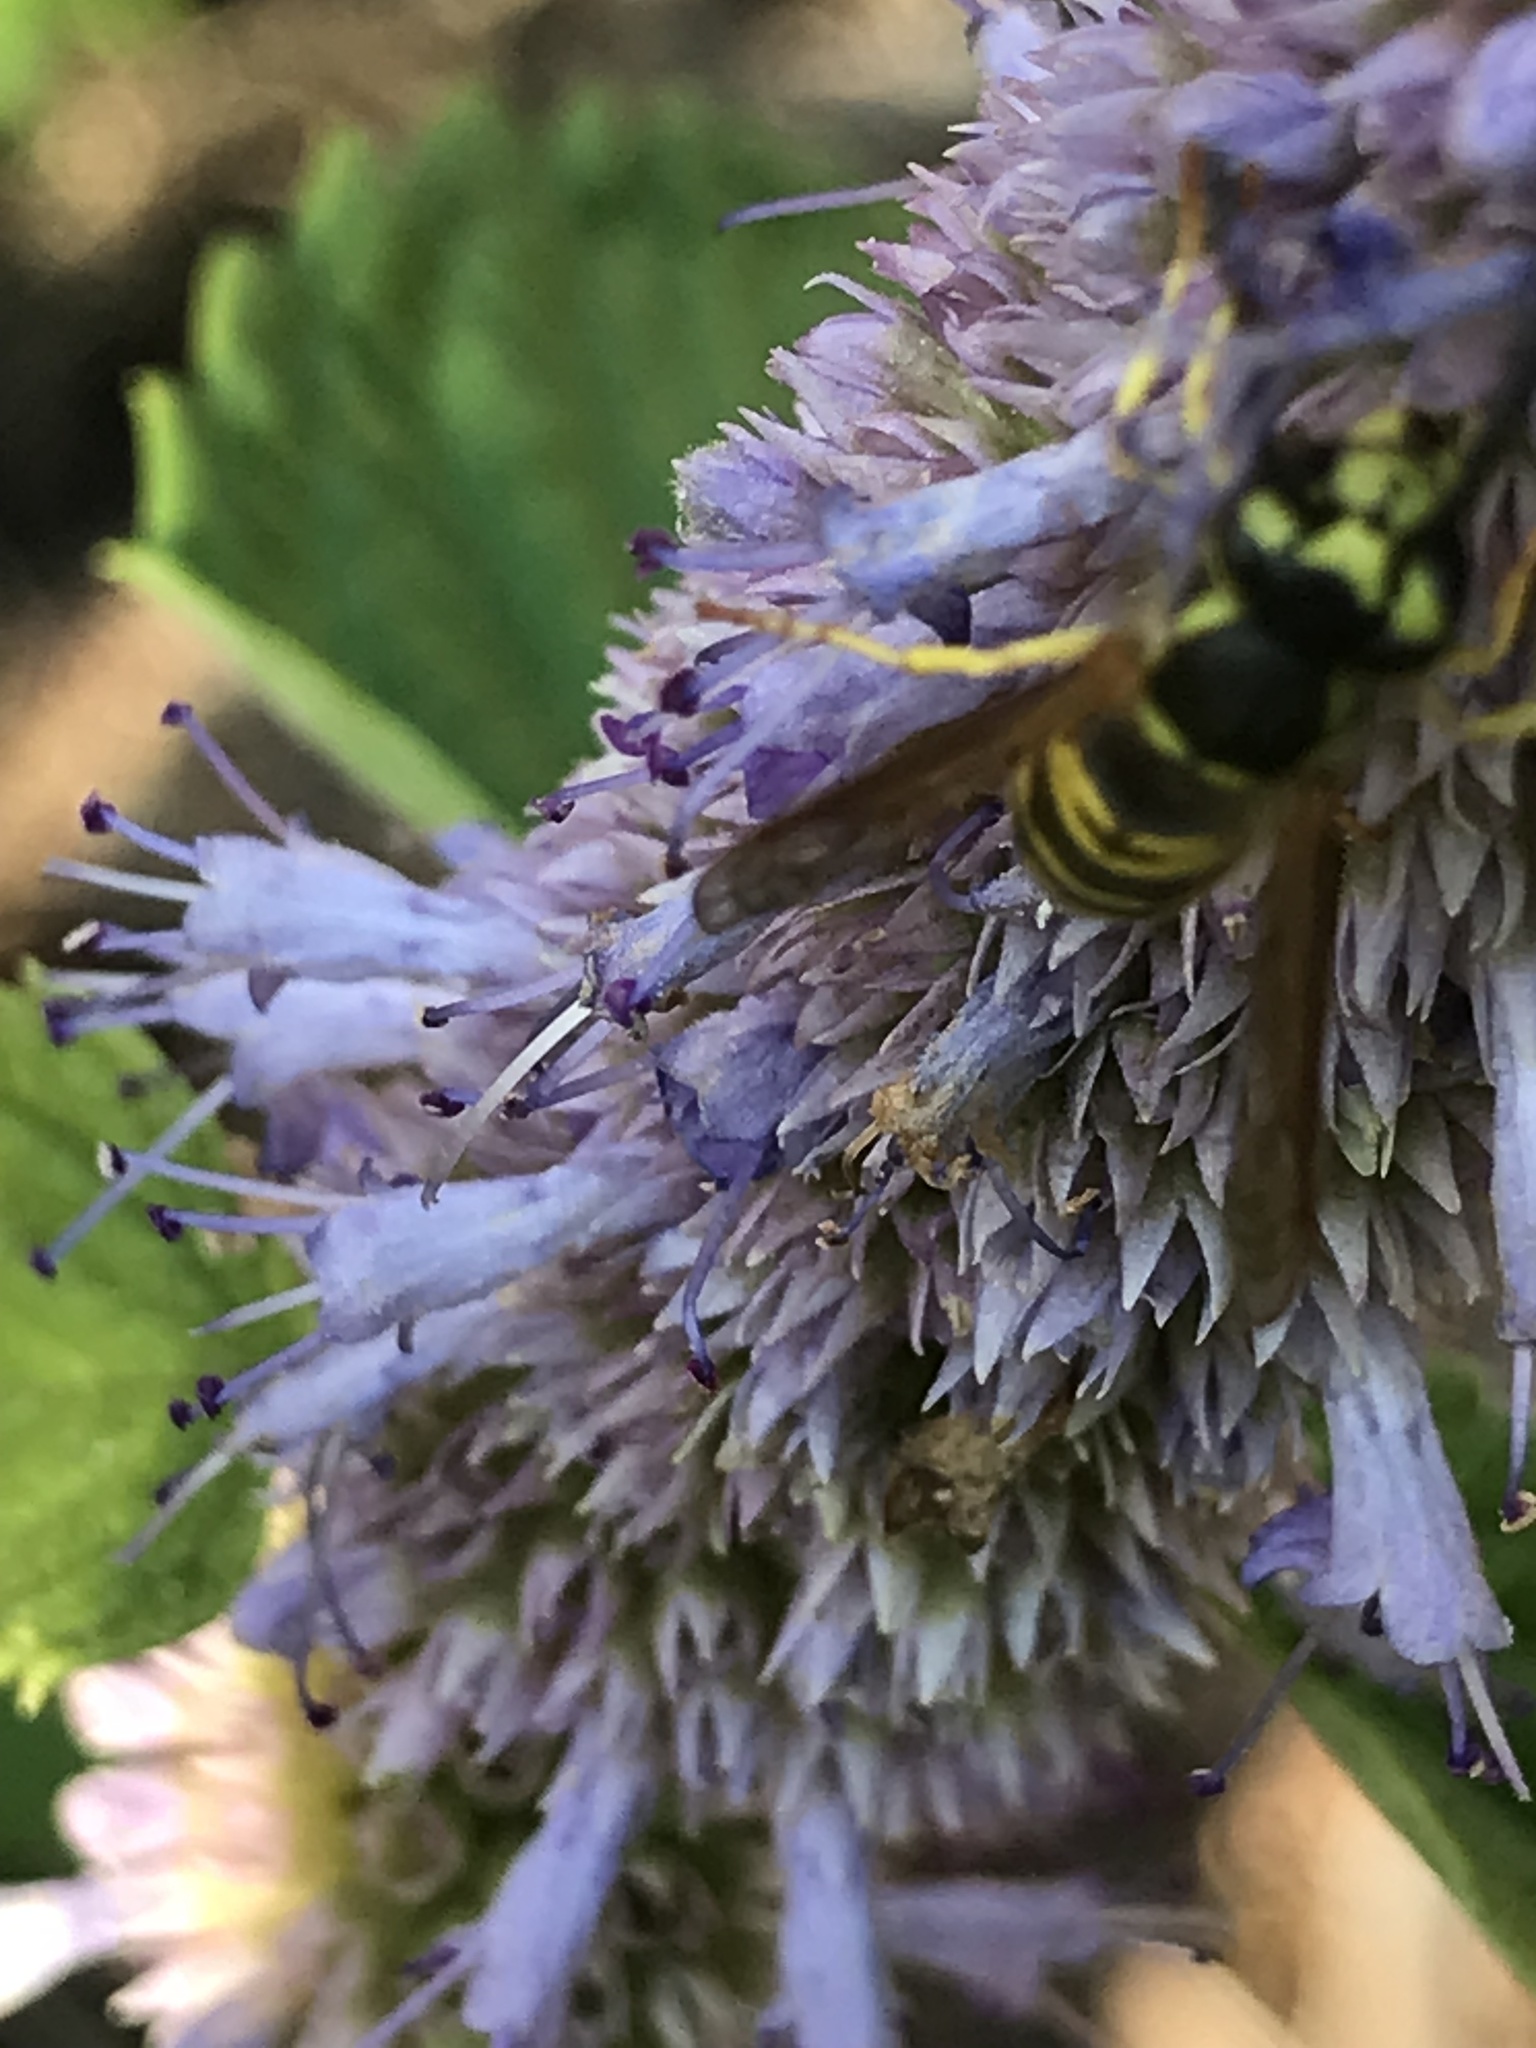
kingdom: Animalia
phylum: Arthropoda
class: Insecta
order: Hymenoptera
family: Vespidae
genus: Vespula
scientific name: Vespula maculifrons
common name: Eastern yellowjacket
